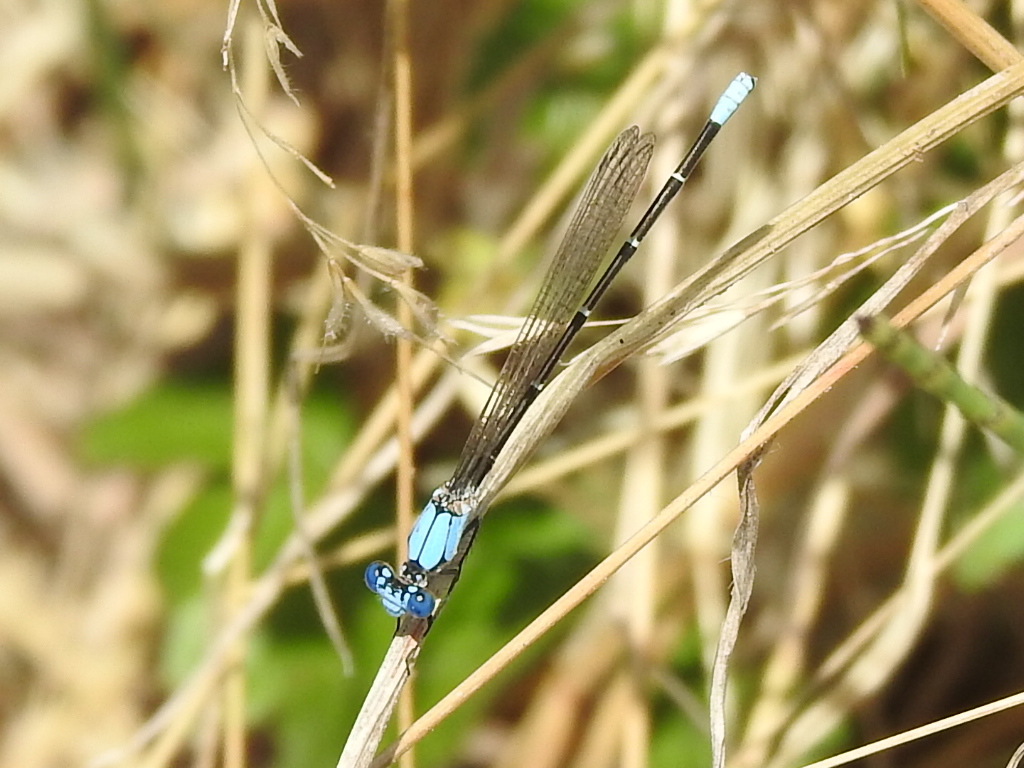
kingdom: Animalia
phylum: Arthropoda
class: Insecta
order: Odonata
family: Coenagrionidae
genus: Argia
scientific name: Argia apicalis
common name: Blue-fronted dancer
